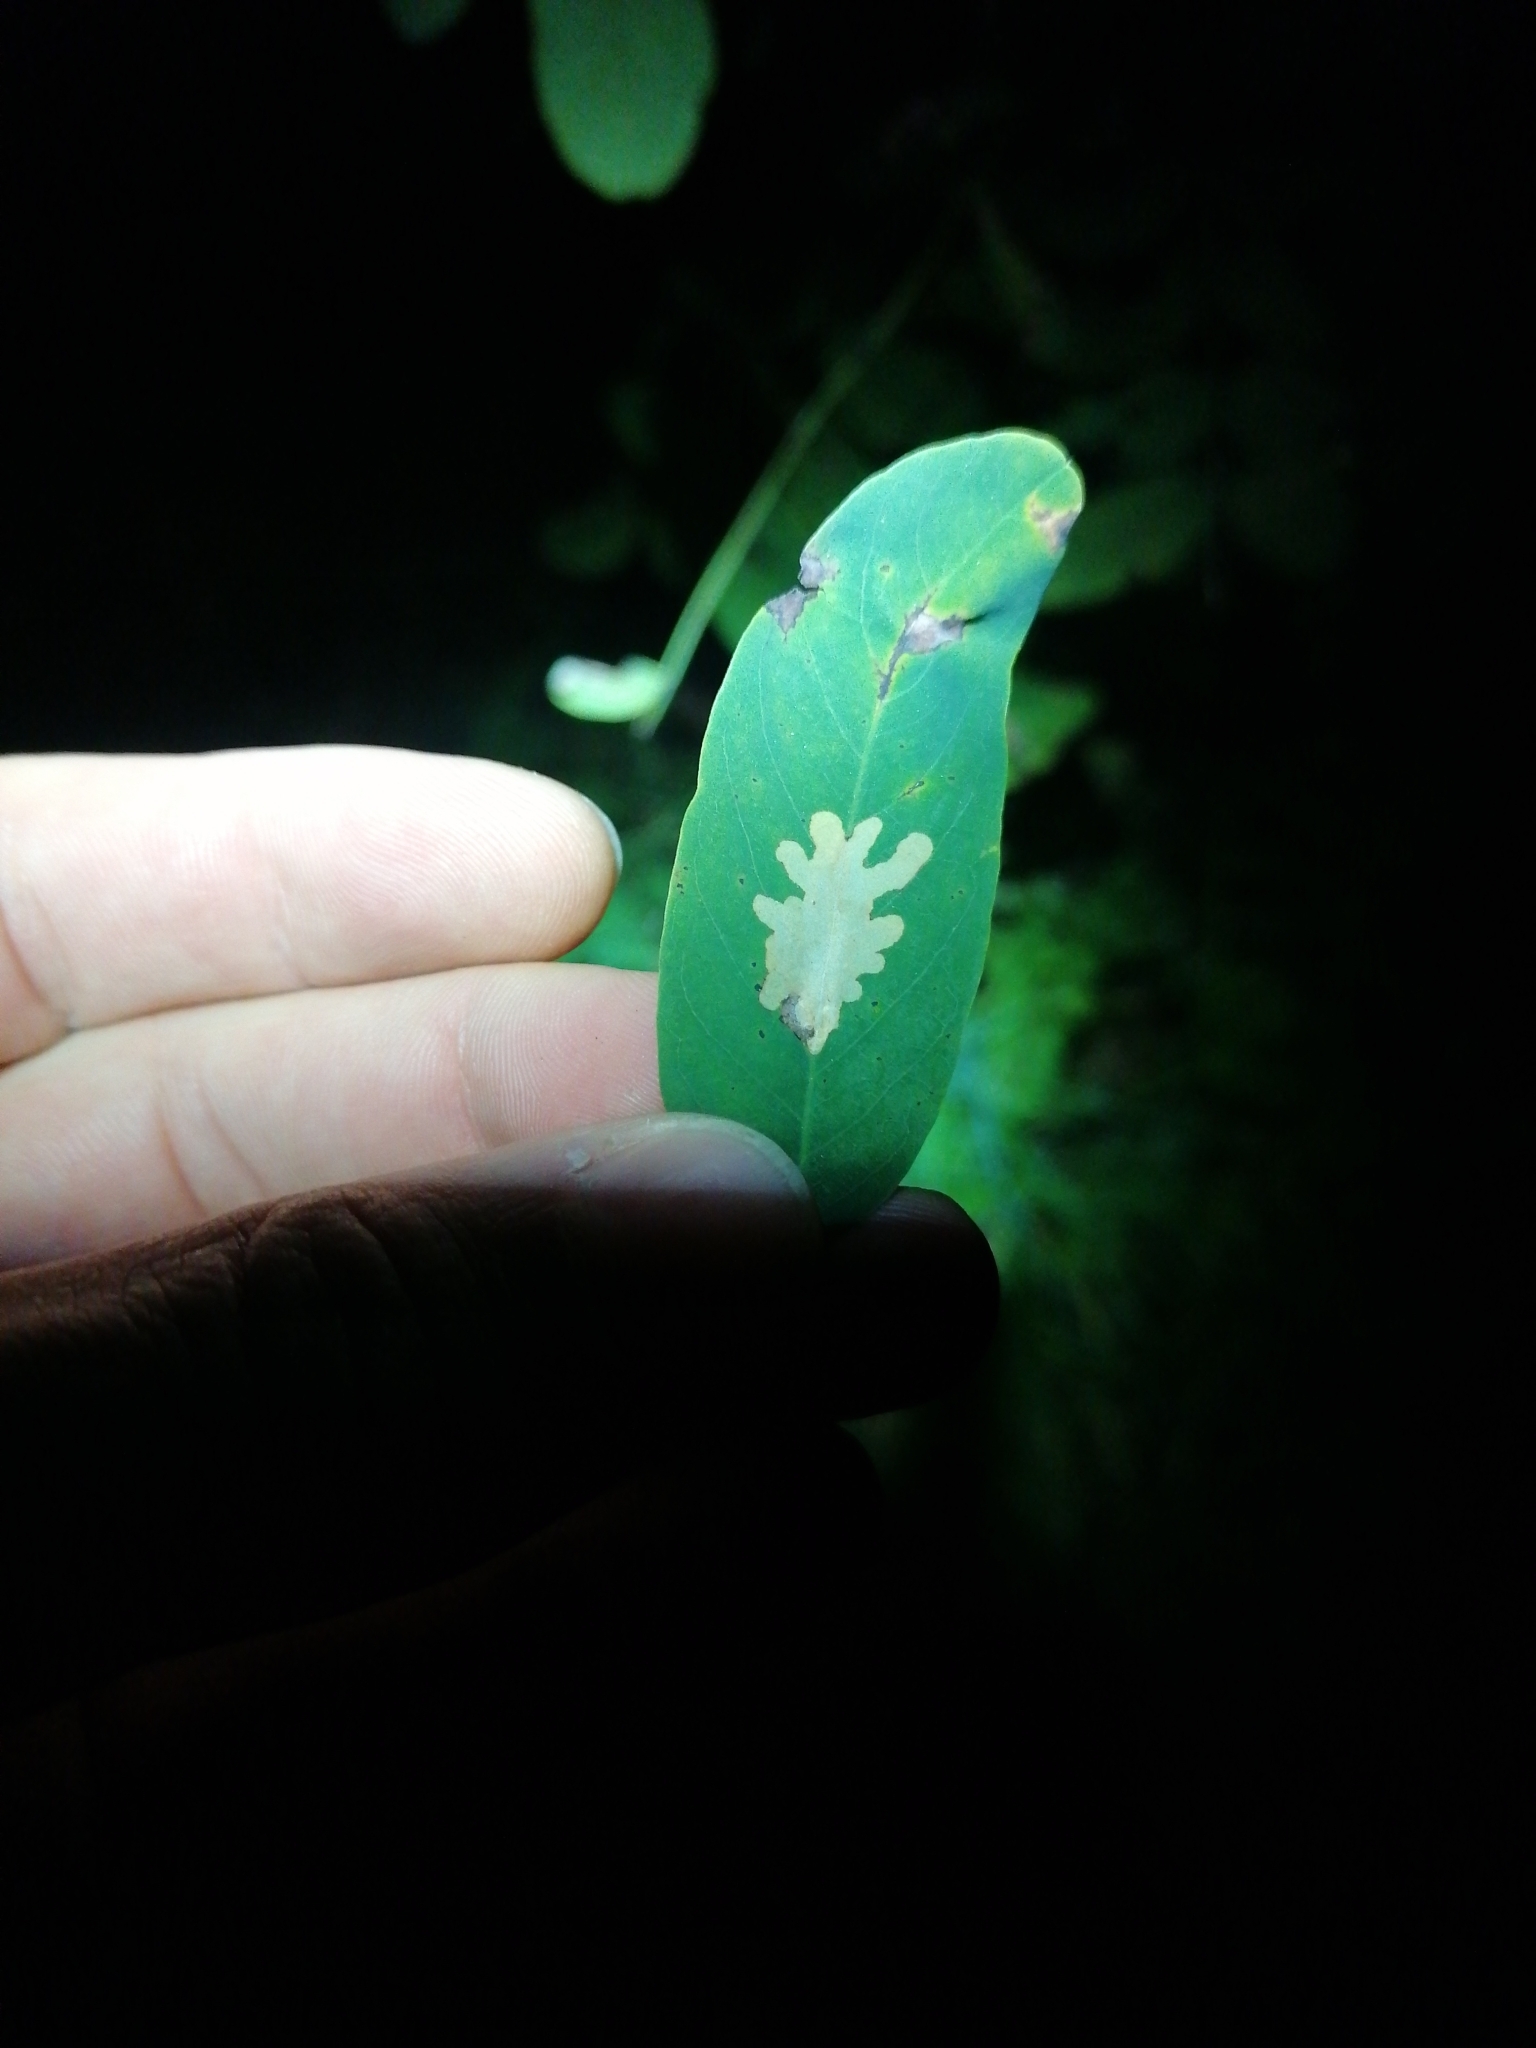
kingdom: Animalia
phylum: Arthropoda
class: Insecta
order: Lepidoptera
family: Gracillariidae
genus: Parectopa
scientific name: Parectopa robiniella
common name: Locust digitate leafminer
